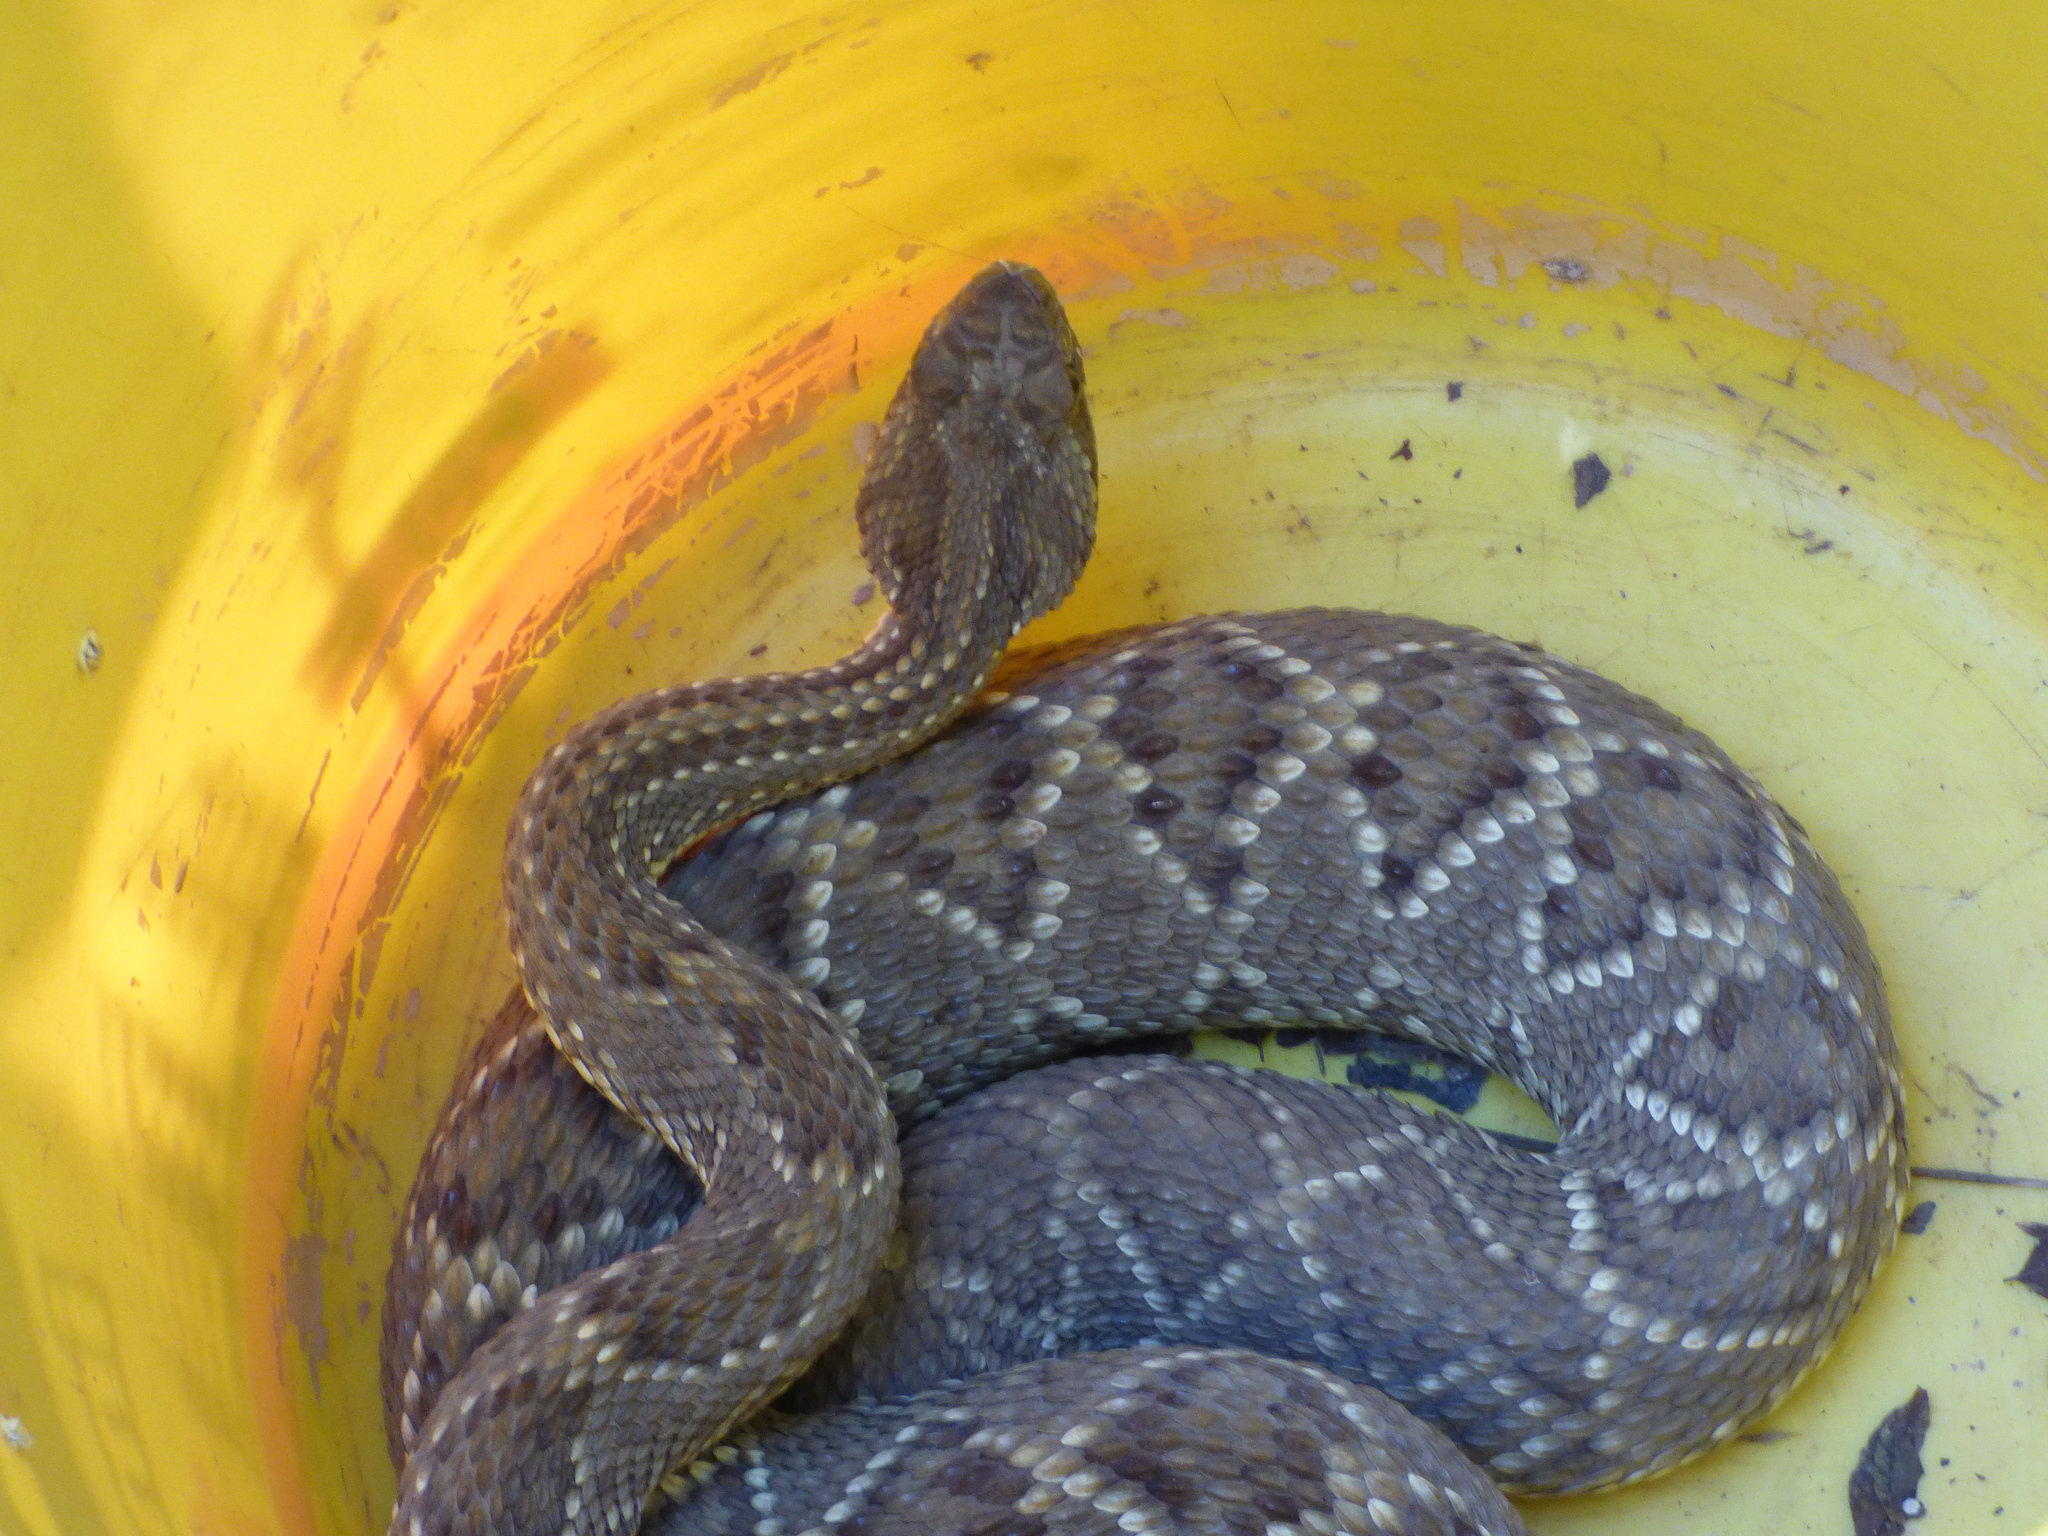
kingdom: Animalia
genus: Crotalus
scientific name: Crotalus durissus
